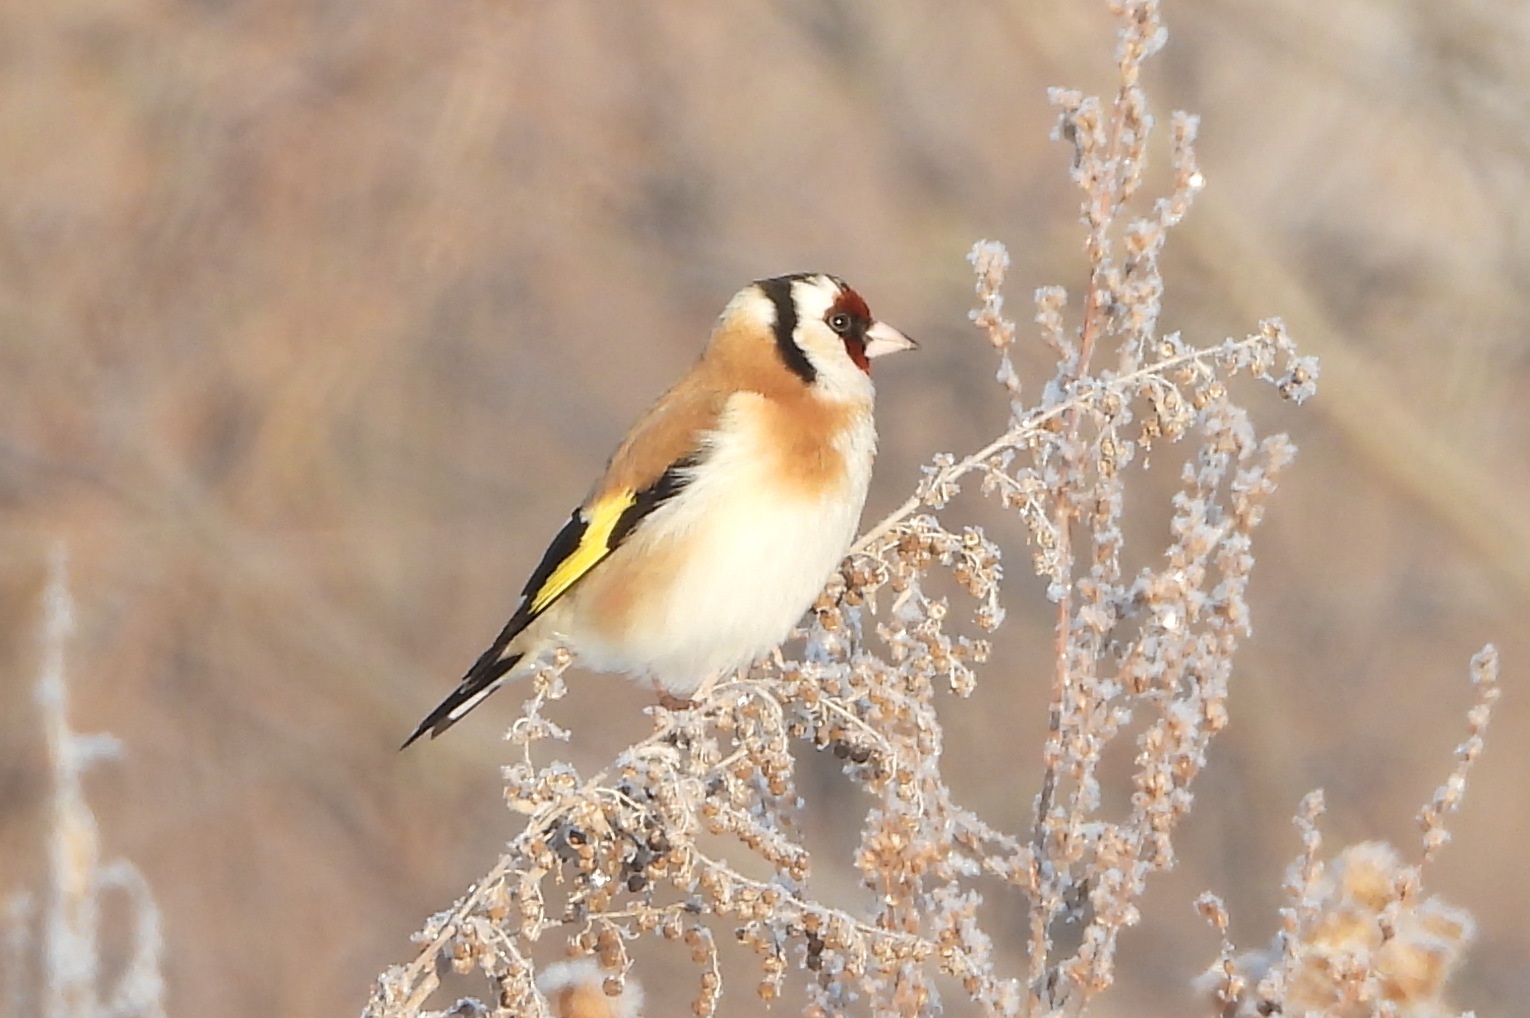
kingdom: Animalia
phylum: Chordata
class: Aves
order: Passeriformes
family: Fringillidae
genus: Carduelis
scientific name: Carduelis carduelis
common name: European goldfinch
